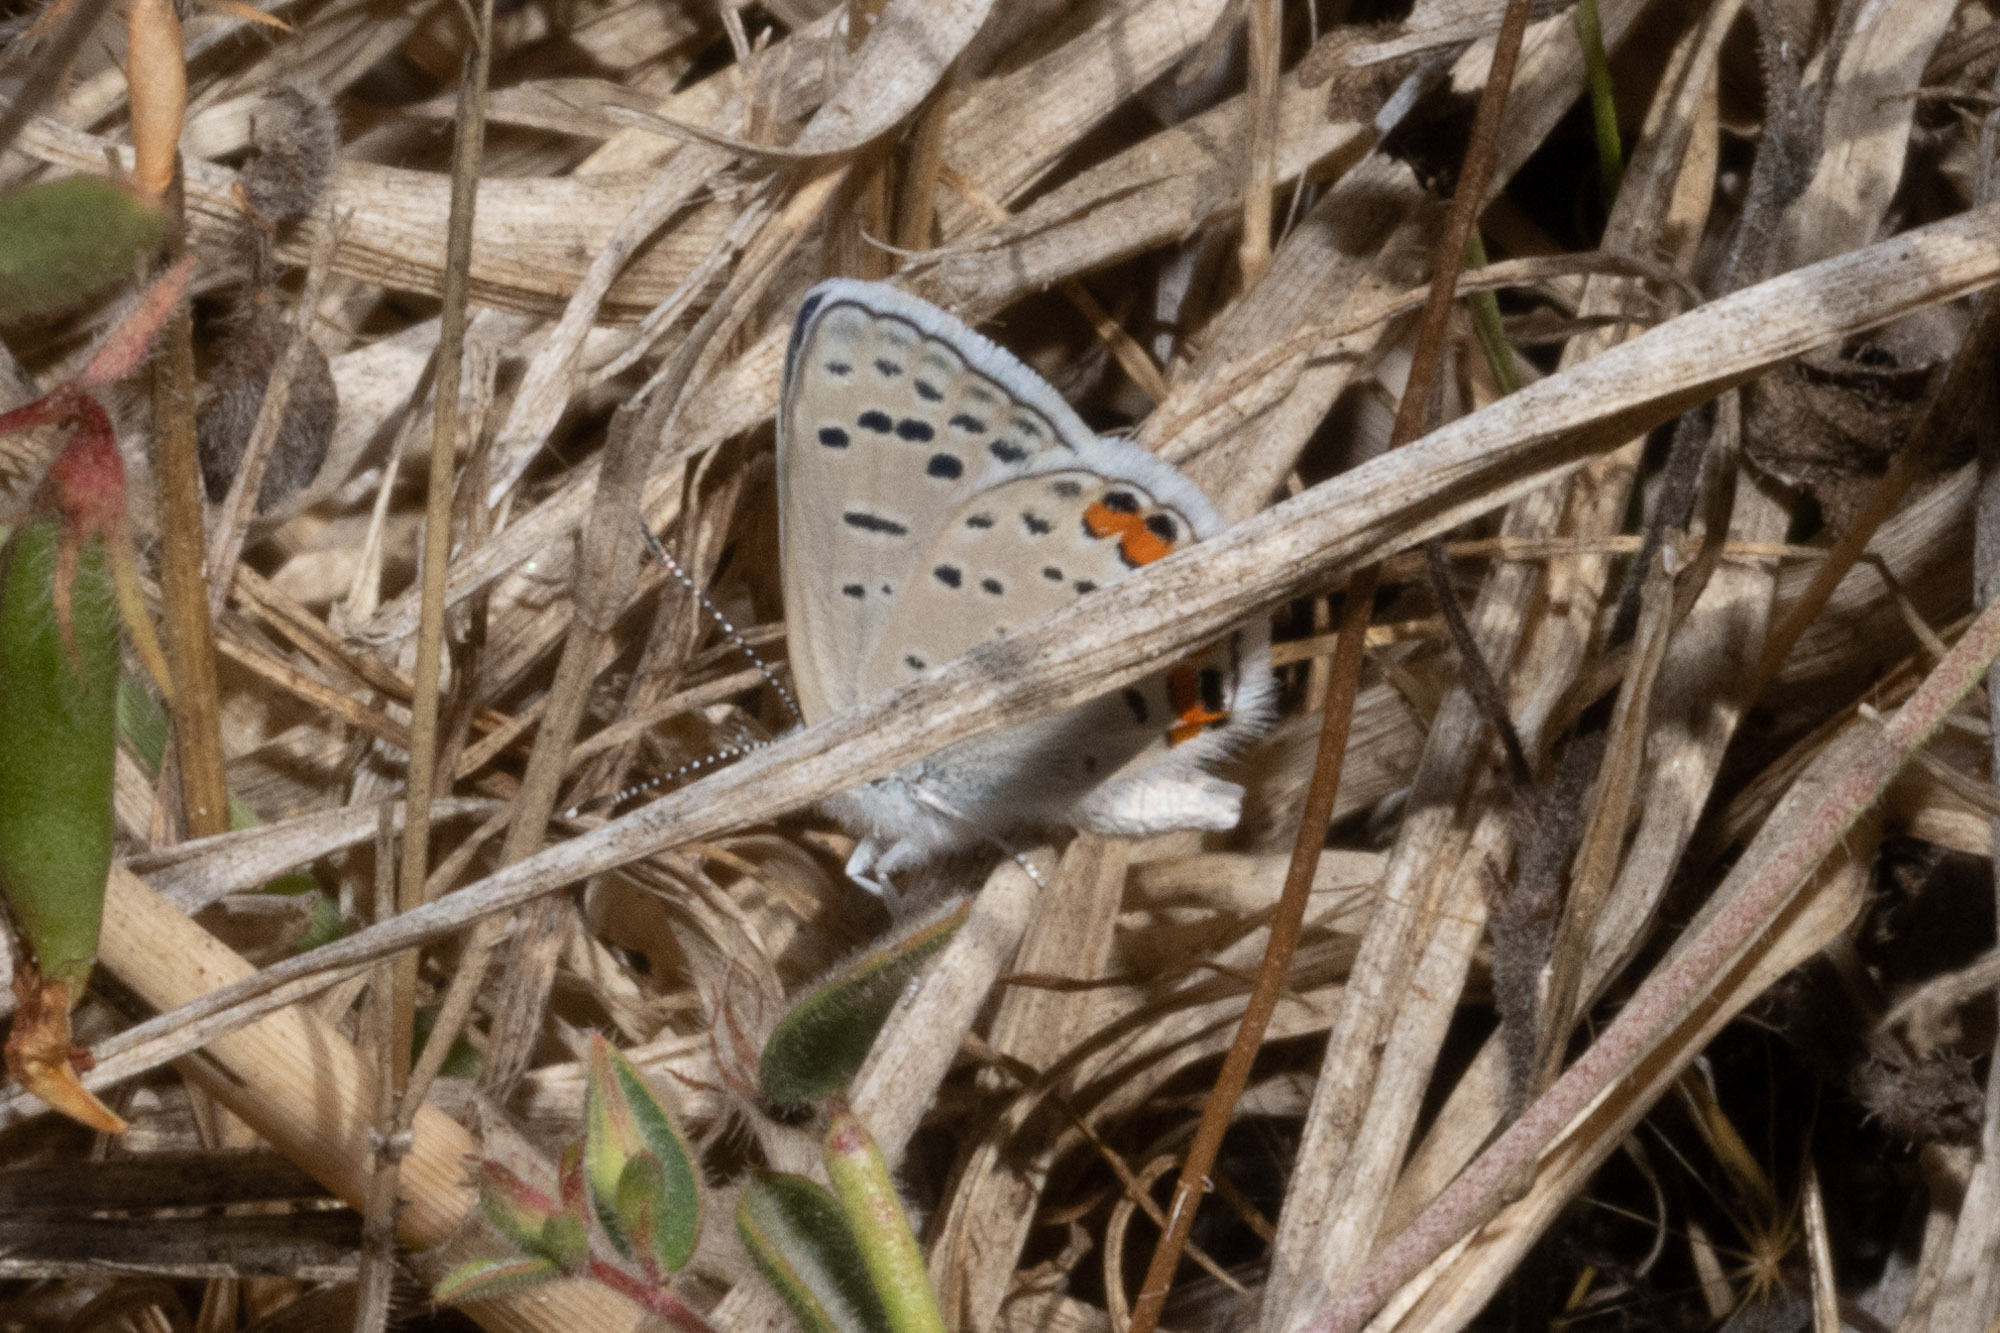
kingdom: Animalia
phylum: Arthropoda
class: Insecta
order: Lepidoptera
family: Lycaenidae
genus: Icaricia
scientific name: Icaricia acmon
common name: Acmon blue
